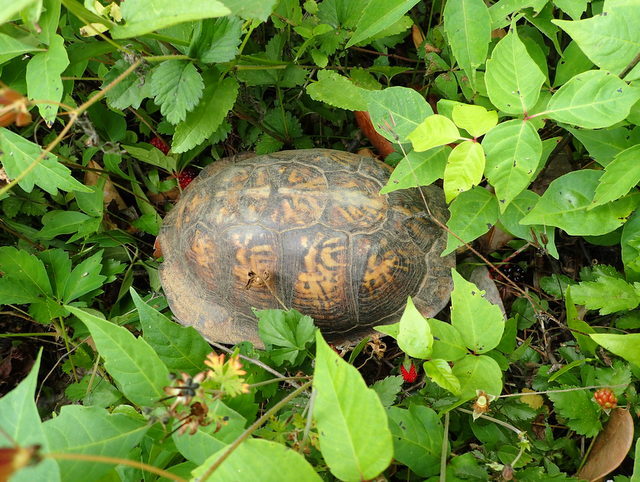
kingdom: Animalia
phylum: Chordata
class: Testudines
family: Emydidae
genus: Terrapene
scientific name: Terrapene carolina
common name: Common box turtle
